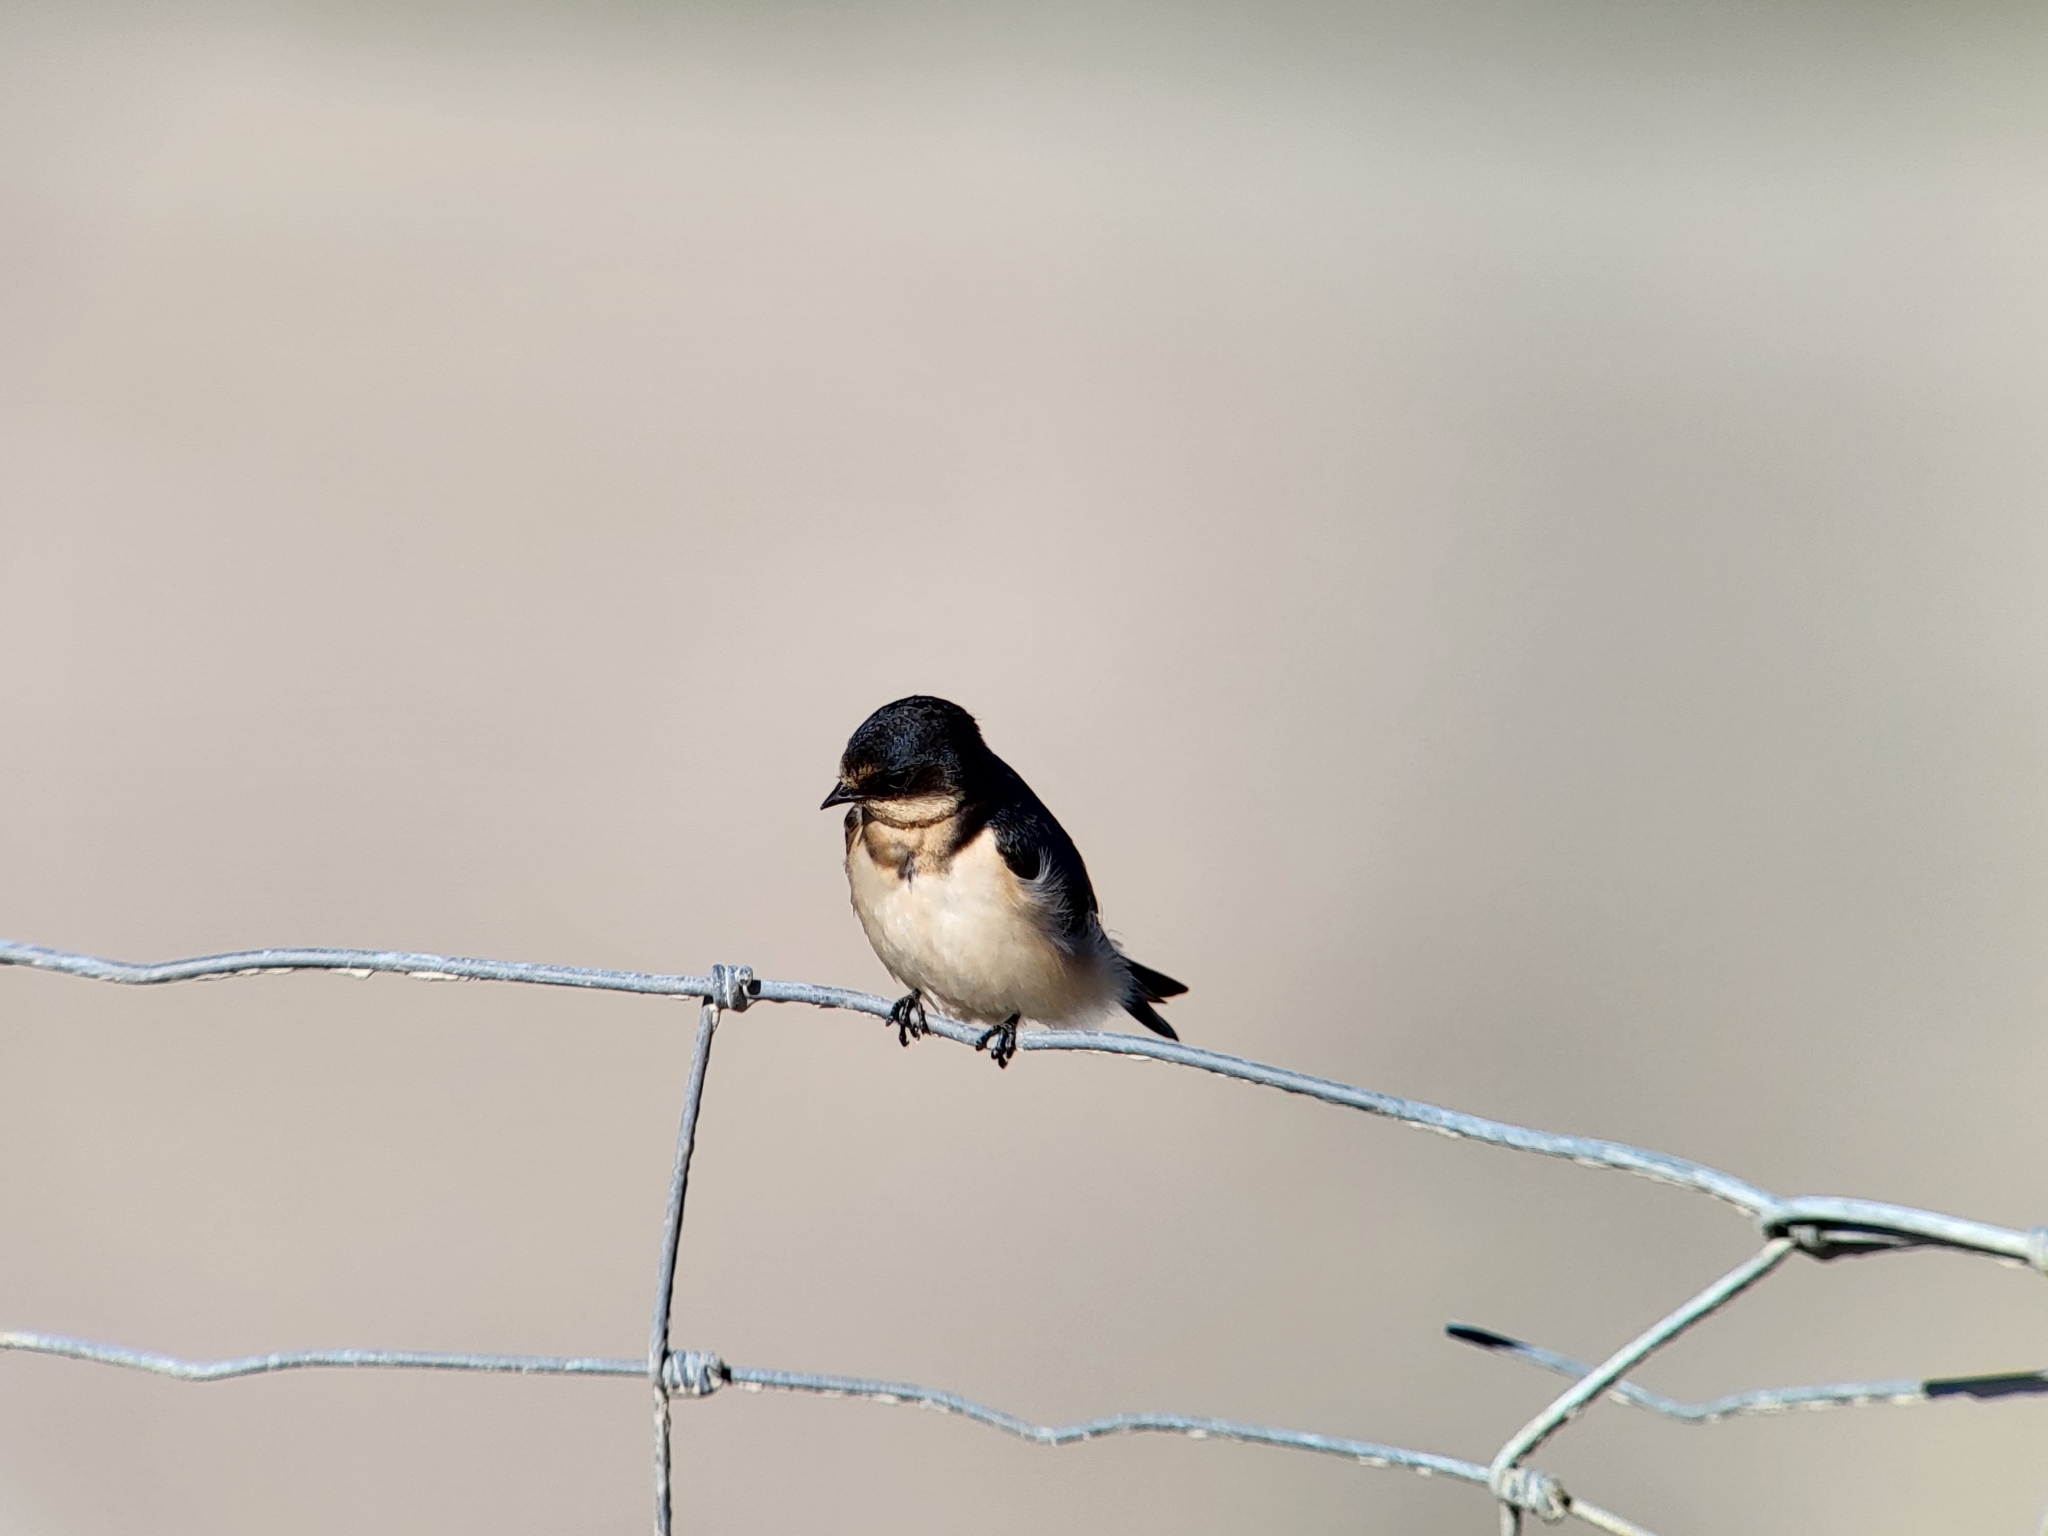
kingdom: Animalia
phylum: Chordata
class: Aves
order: Passeriformes
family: Hirundinidae
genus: Hirundo
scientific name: Hirundo rustica
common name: Barn swallow
